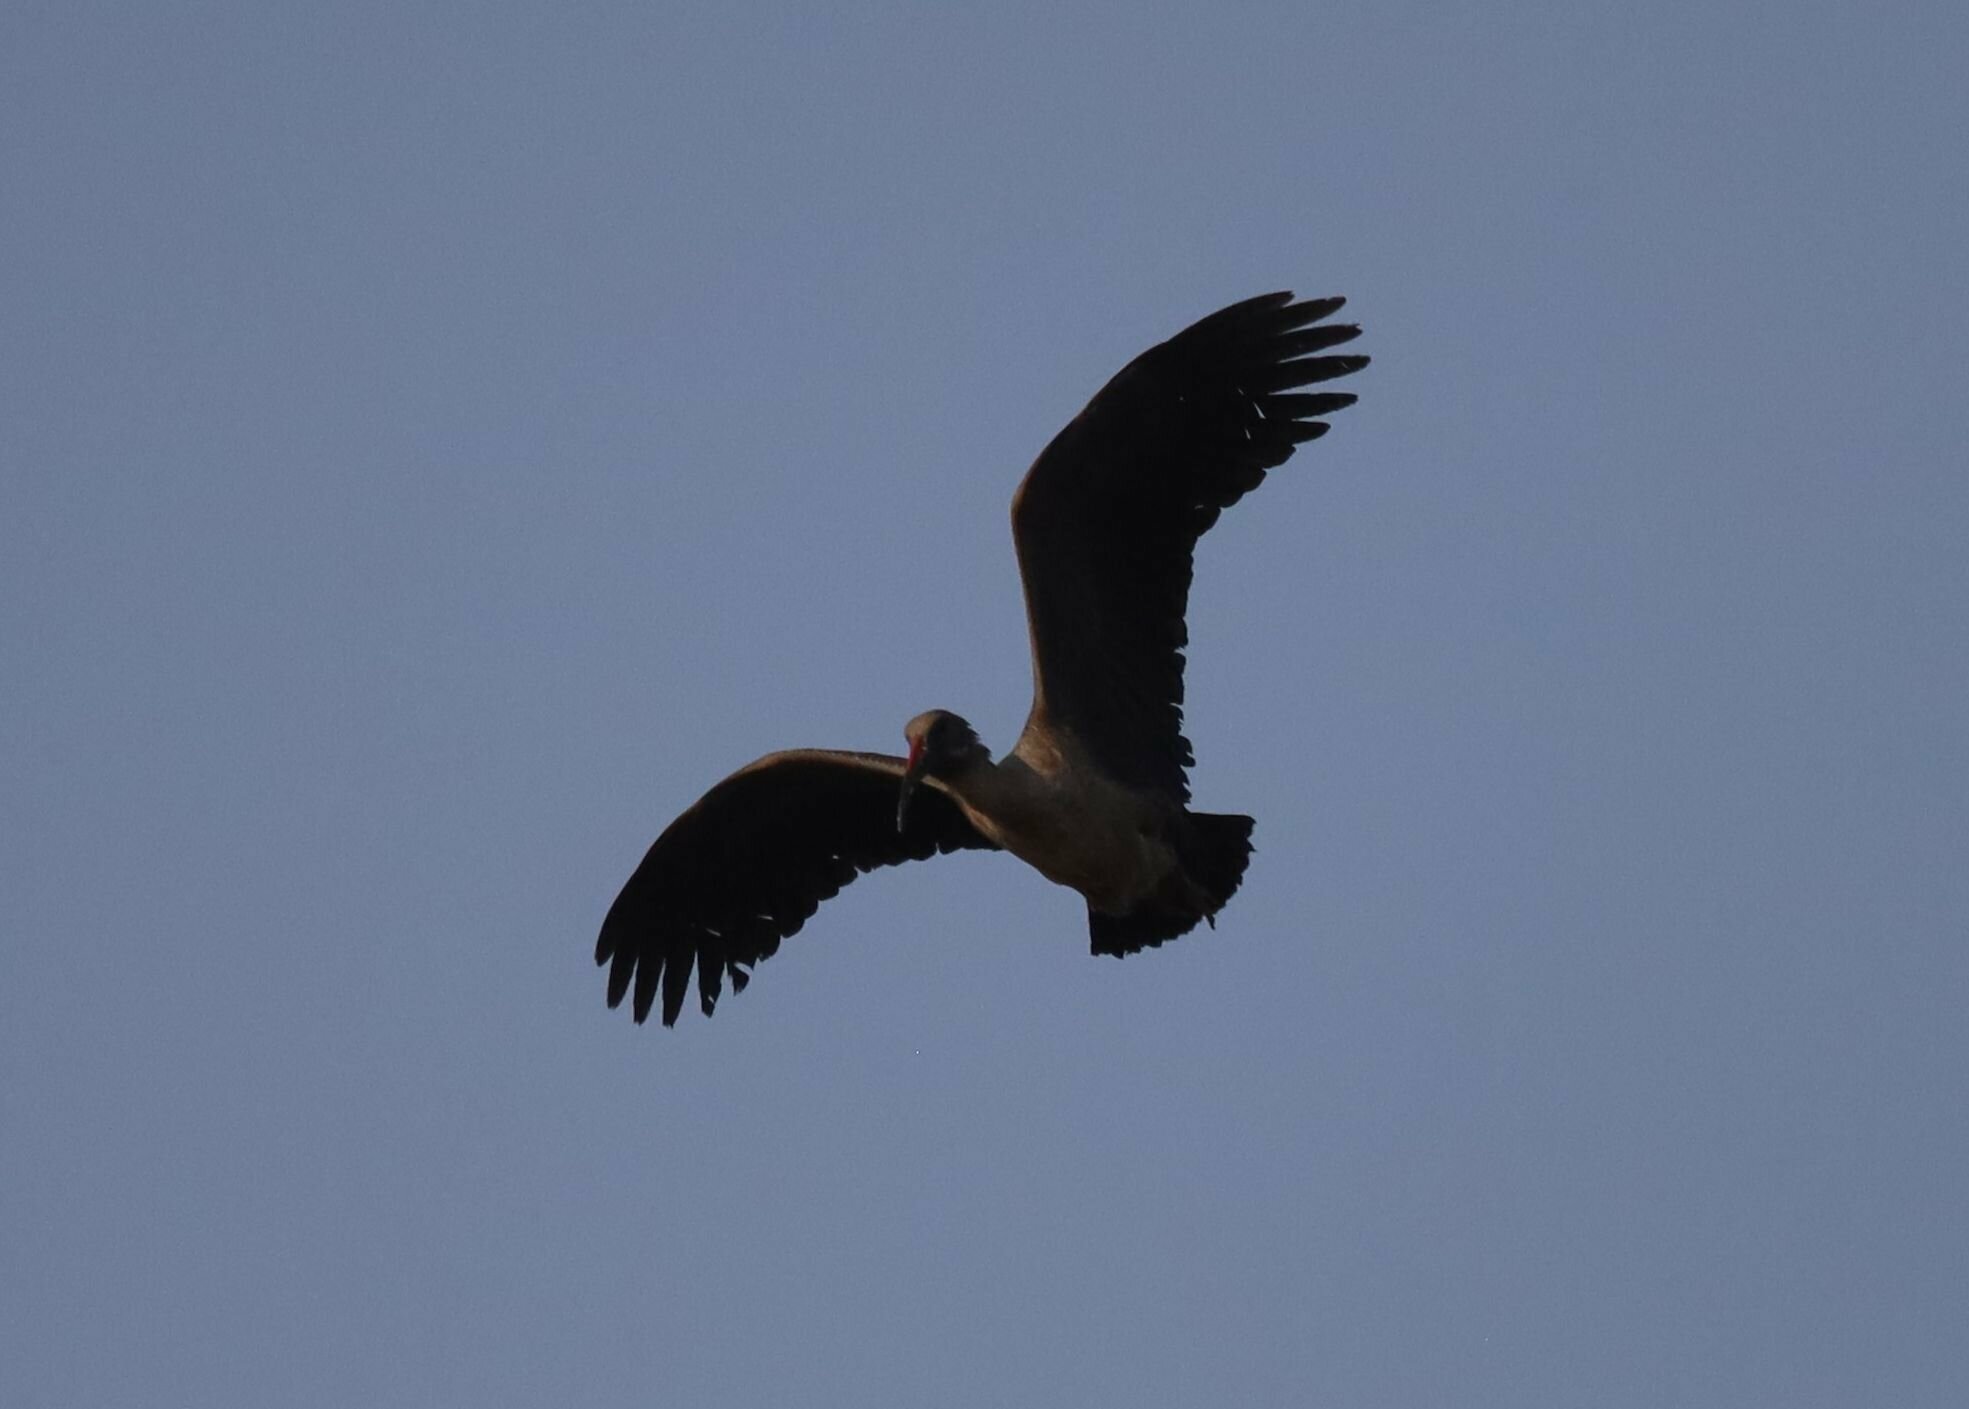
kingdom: Animalia
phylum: Chordata
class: Aves
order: Pelecaniformes
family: Threskiornithidae
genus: Bostrychia
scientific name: Bostrychia hagedash
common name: Hadada ibis
